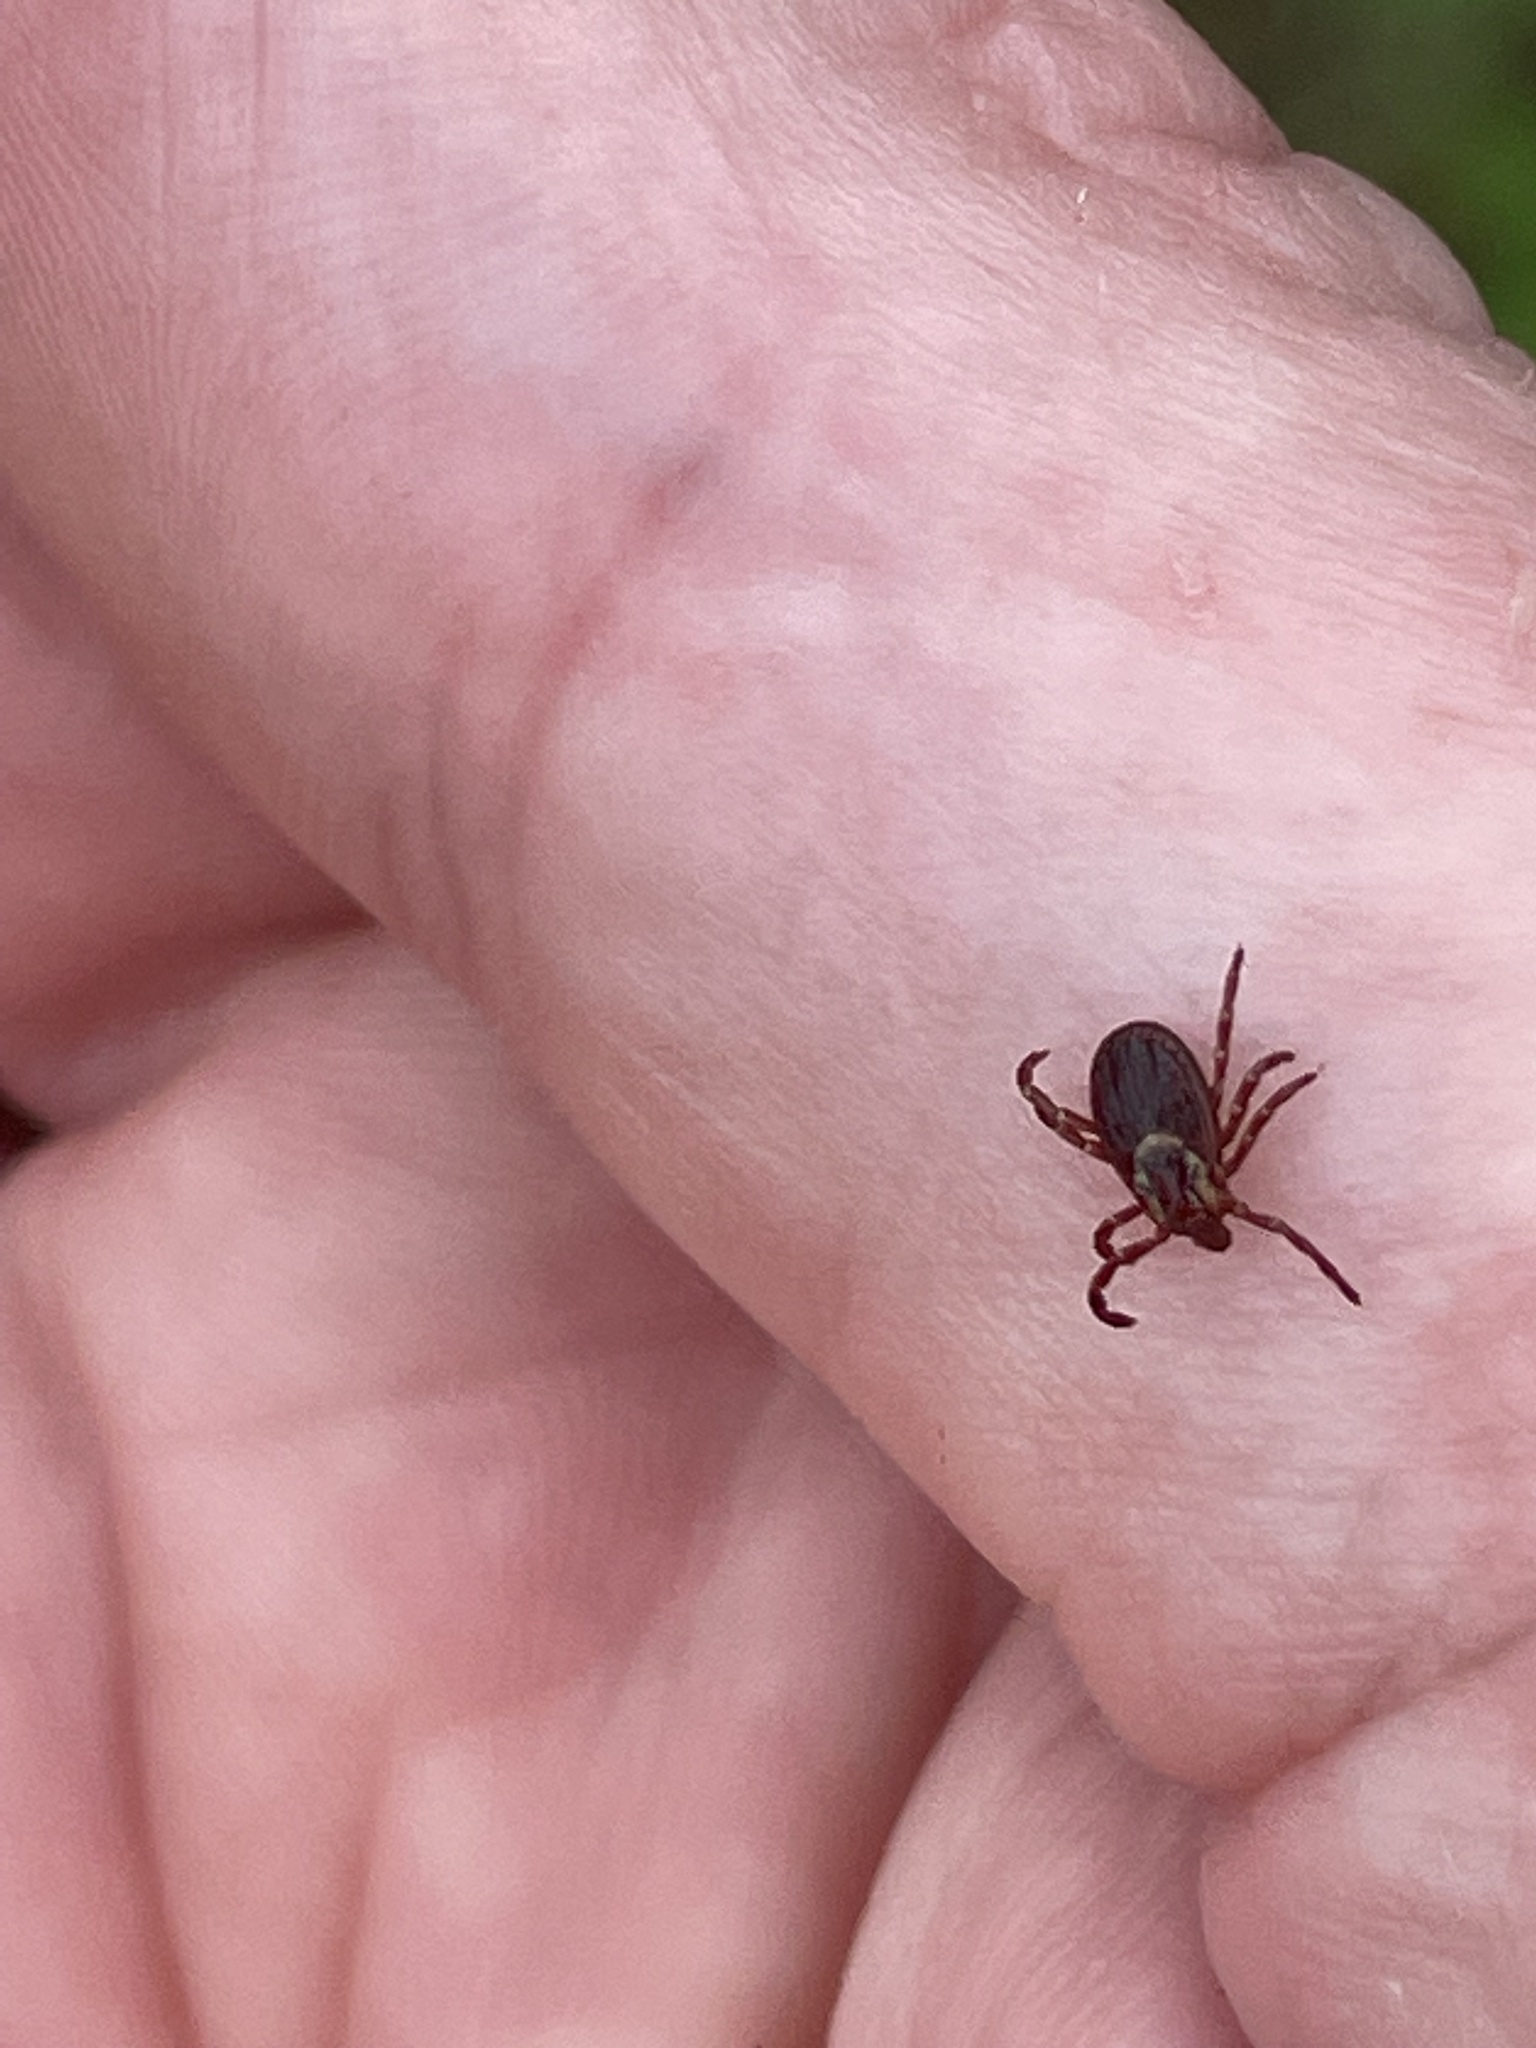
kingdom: Animalia
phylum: Arthropoda
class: Arachnida
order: Ixodida
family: Ixodidae
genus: Dermacentor
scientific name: Dermacentor variabilis
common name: American dog tick
